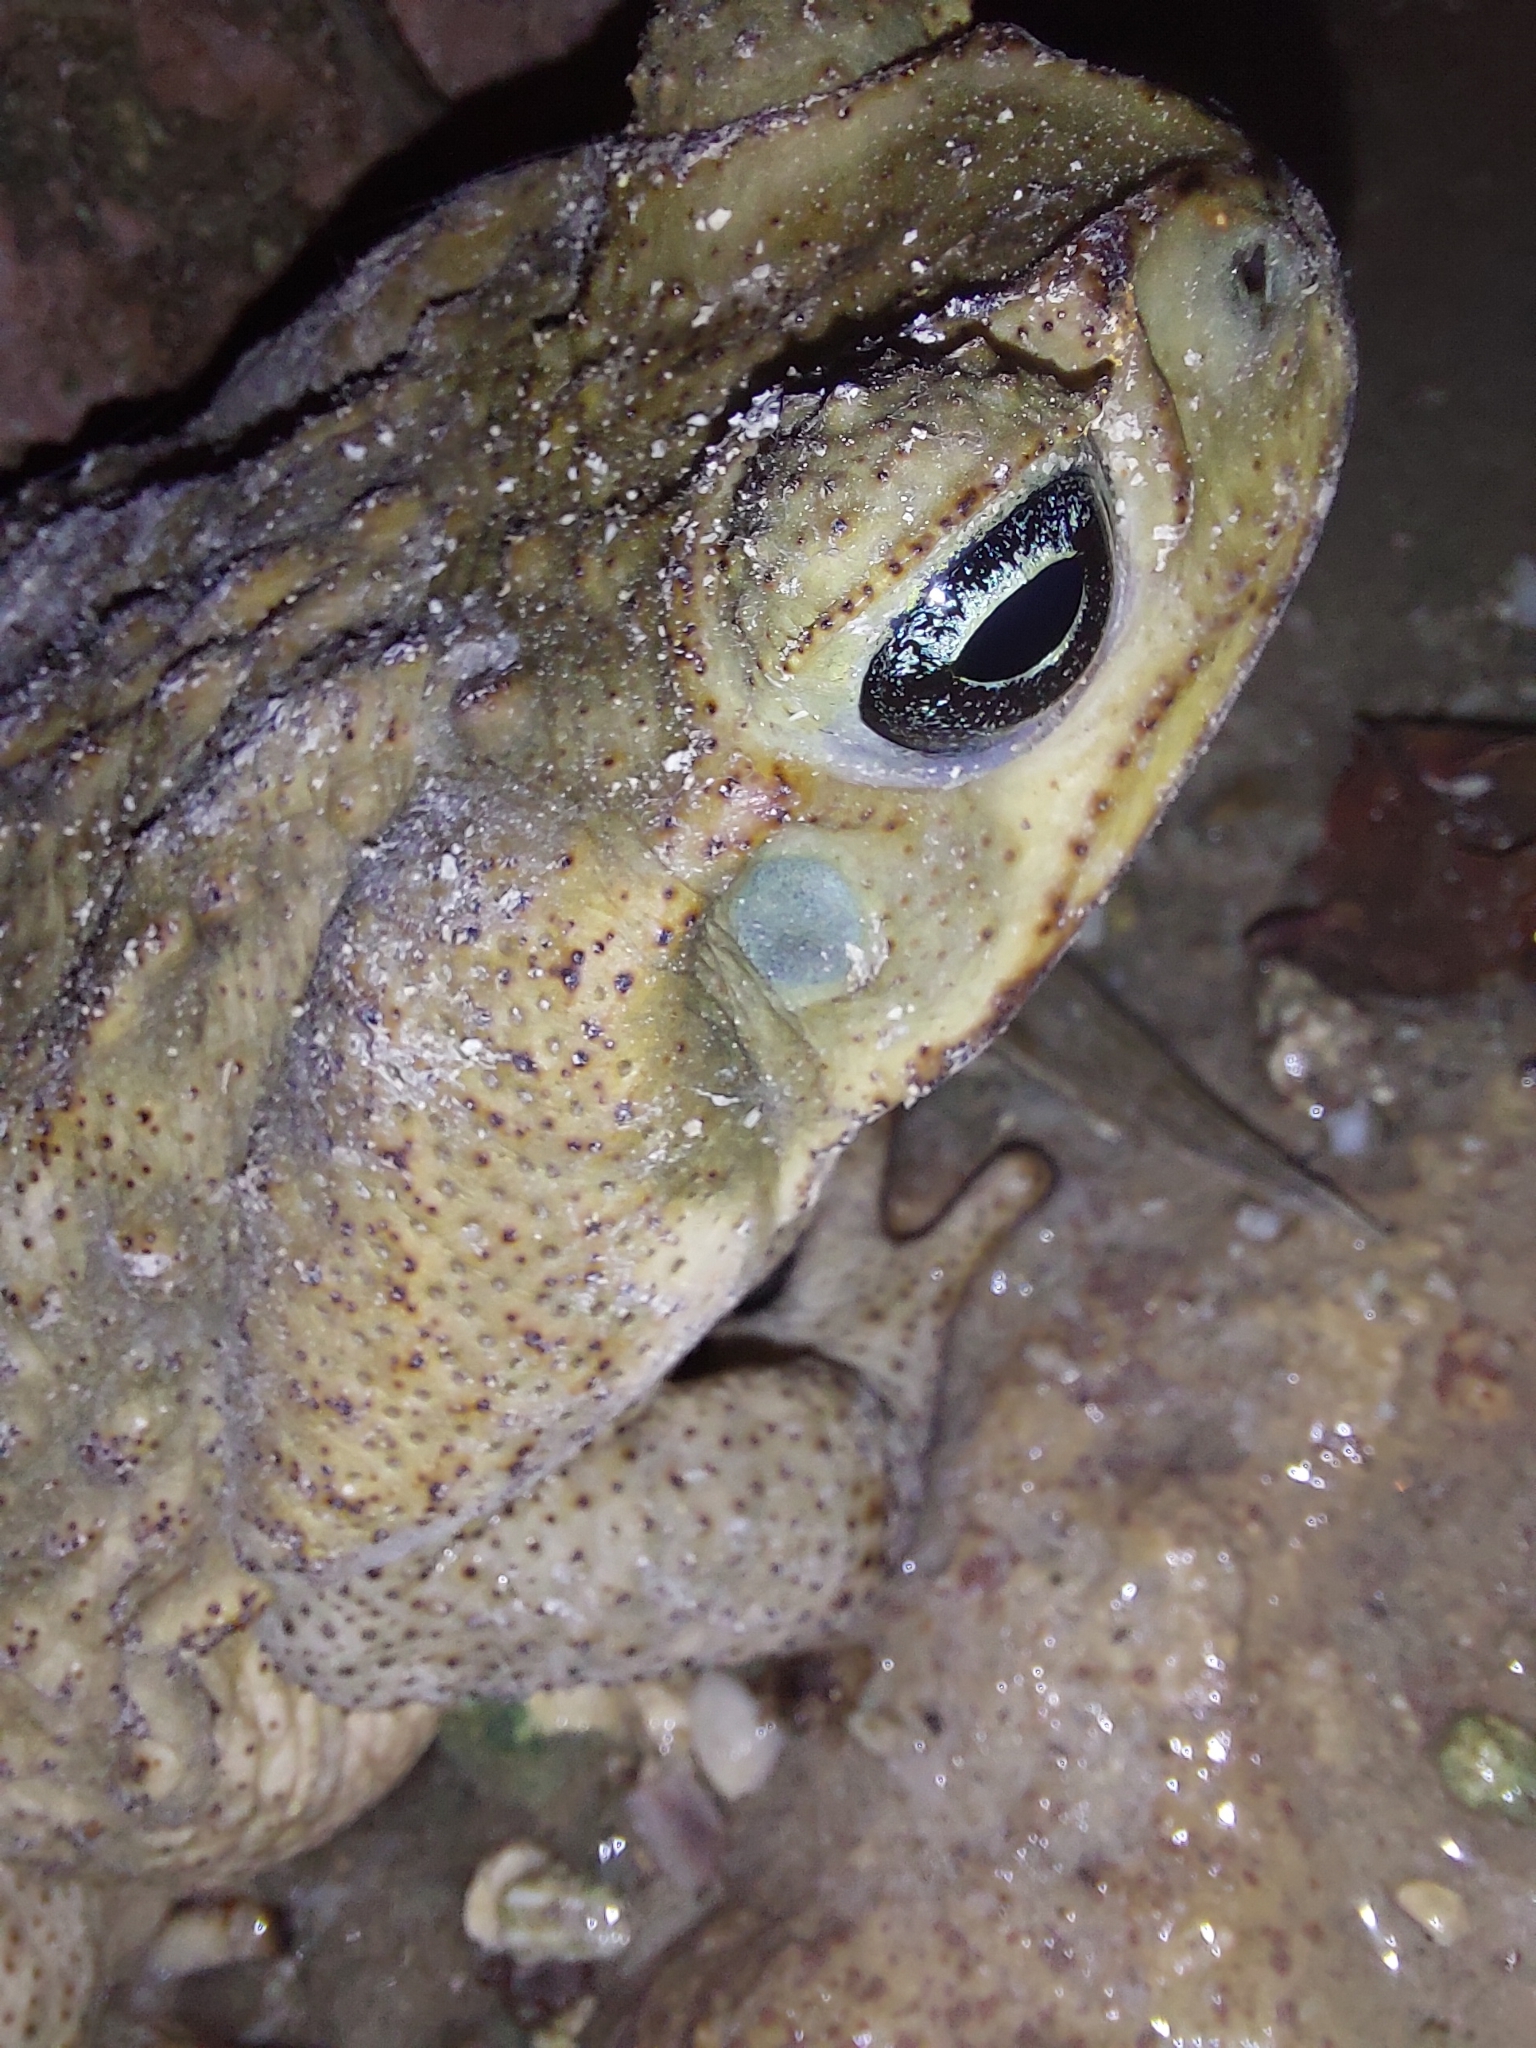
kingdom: Animalia
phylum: Chordata
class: Amphibia
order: Anura
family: Bufonidae
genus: Rhinella
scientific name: Rhinella horribilis
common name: Mesoamerican cane toad
